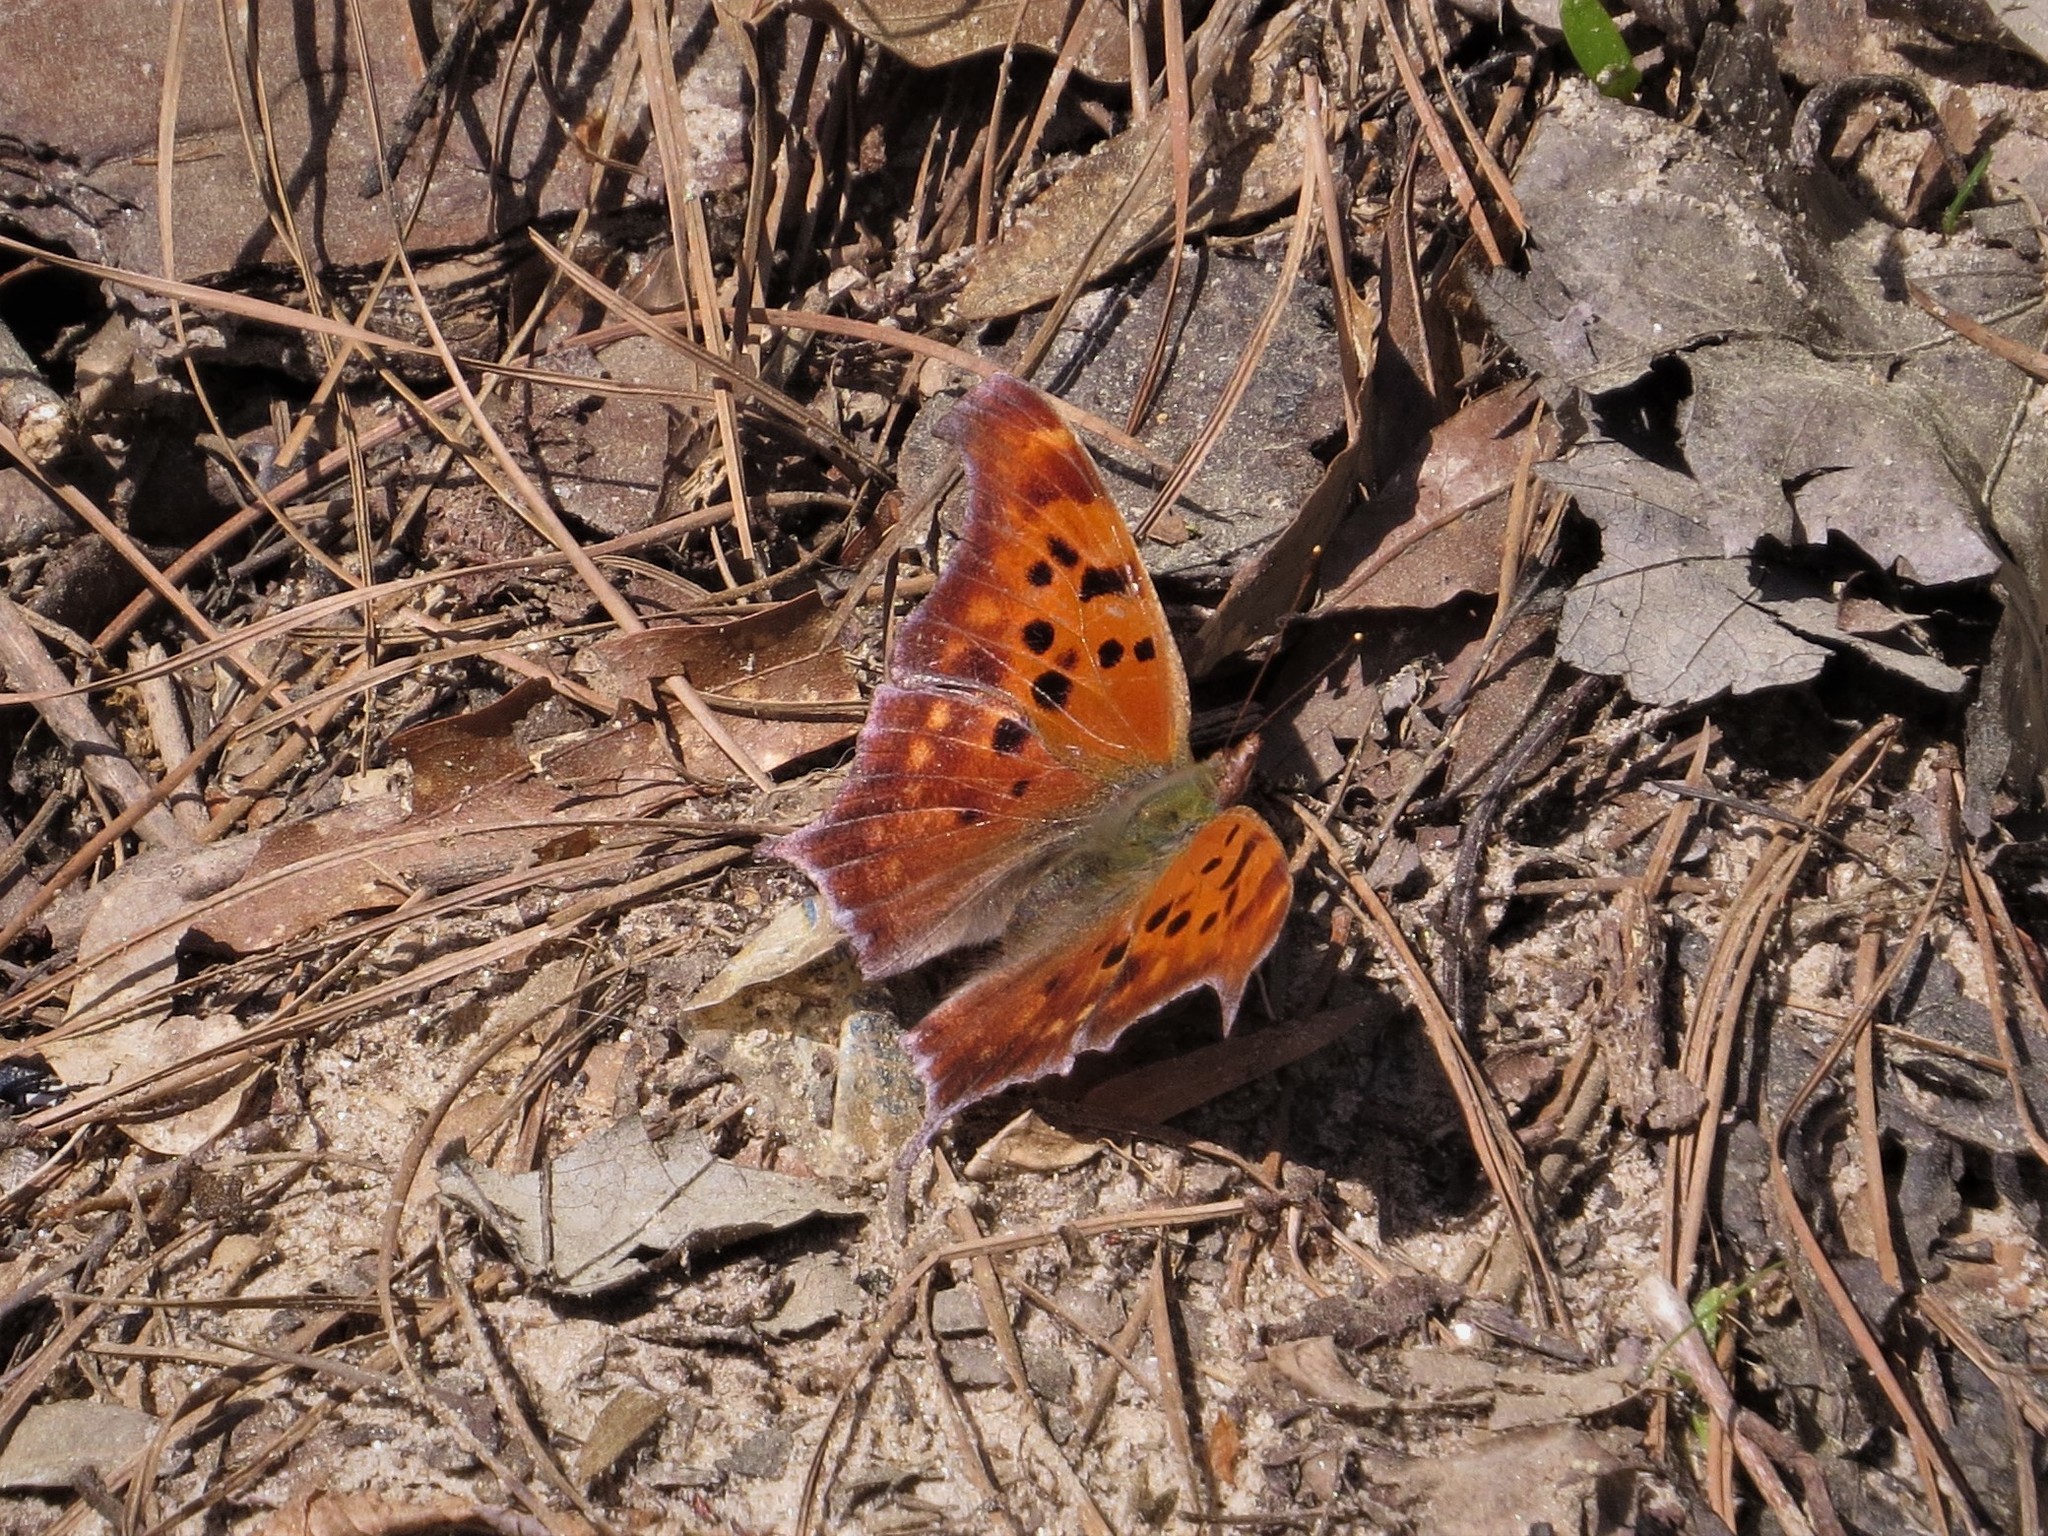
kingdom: Animalia
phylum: Arthropoda
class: Insecta
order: Lepidoptera
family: Nymphalidae
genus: Polygonia
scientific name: Polygonia interrogationis
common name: Question mark
